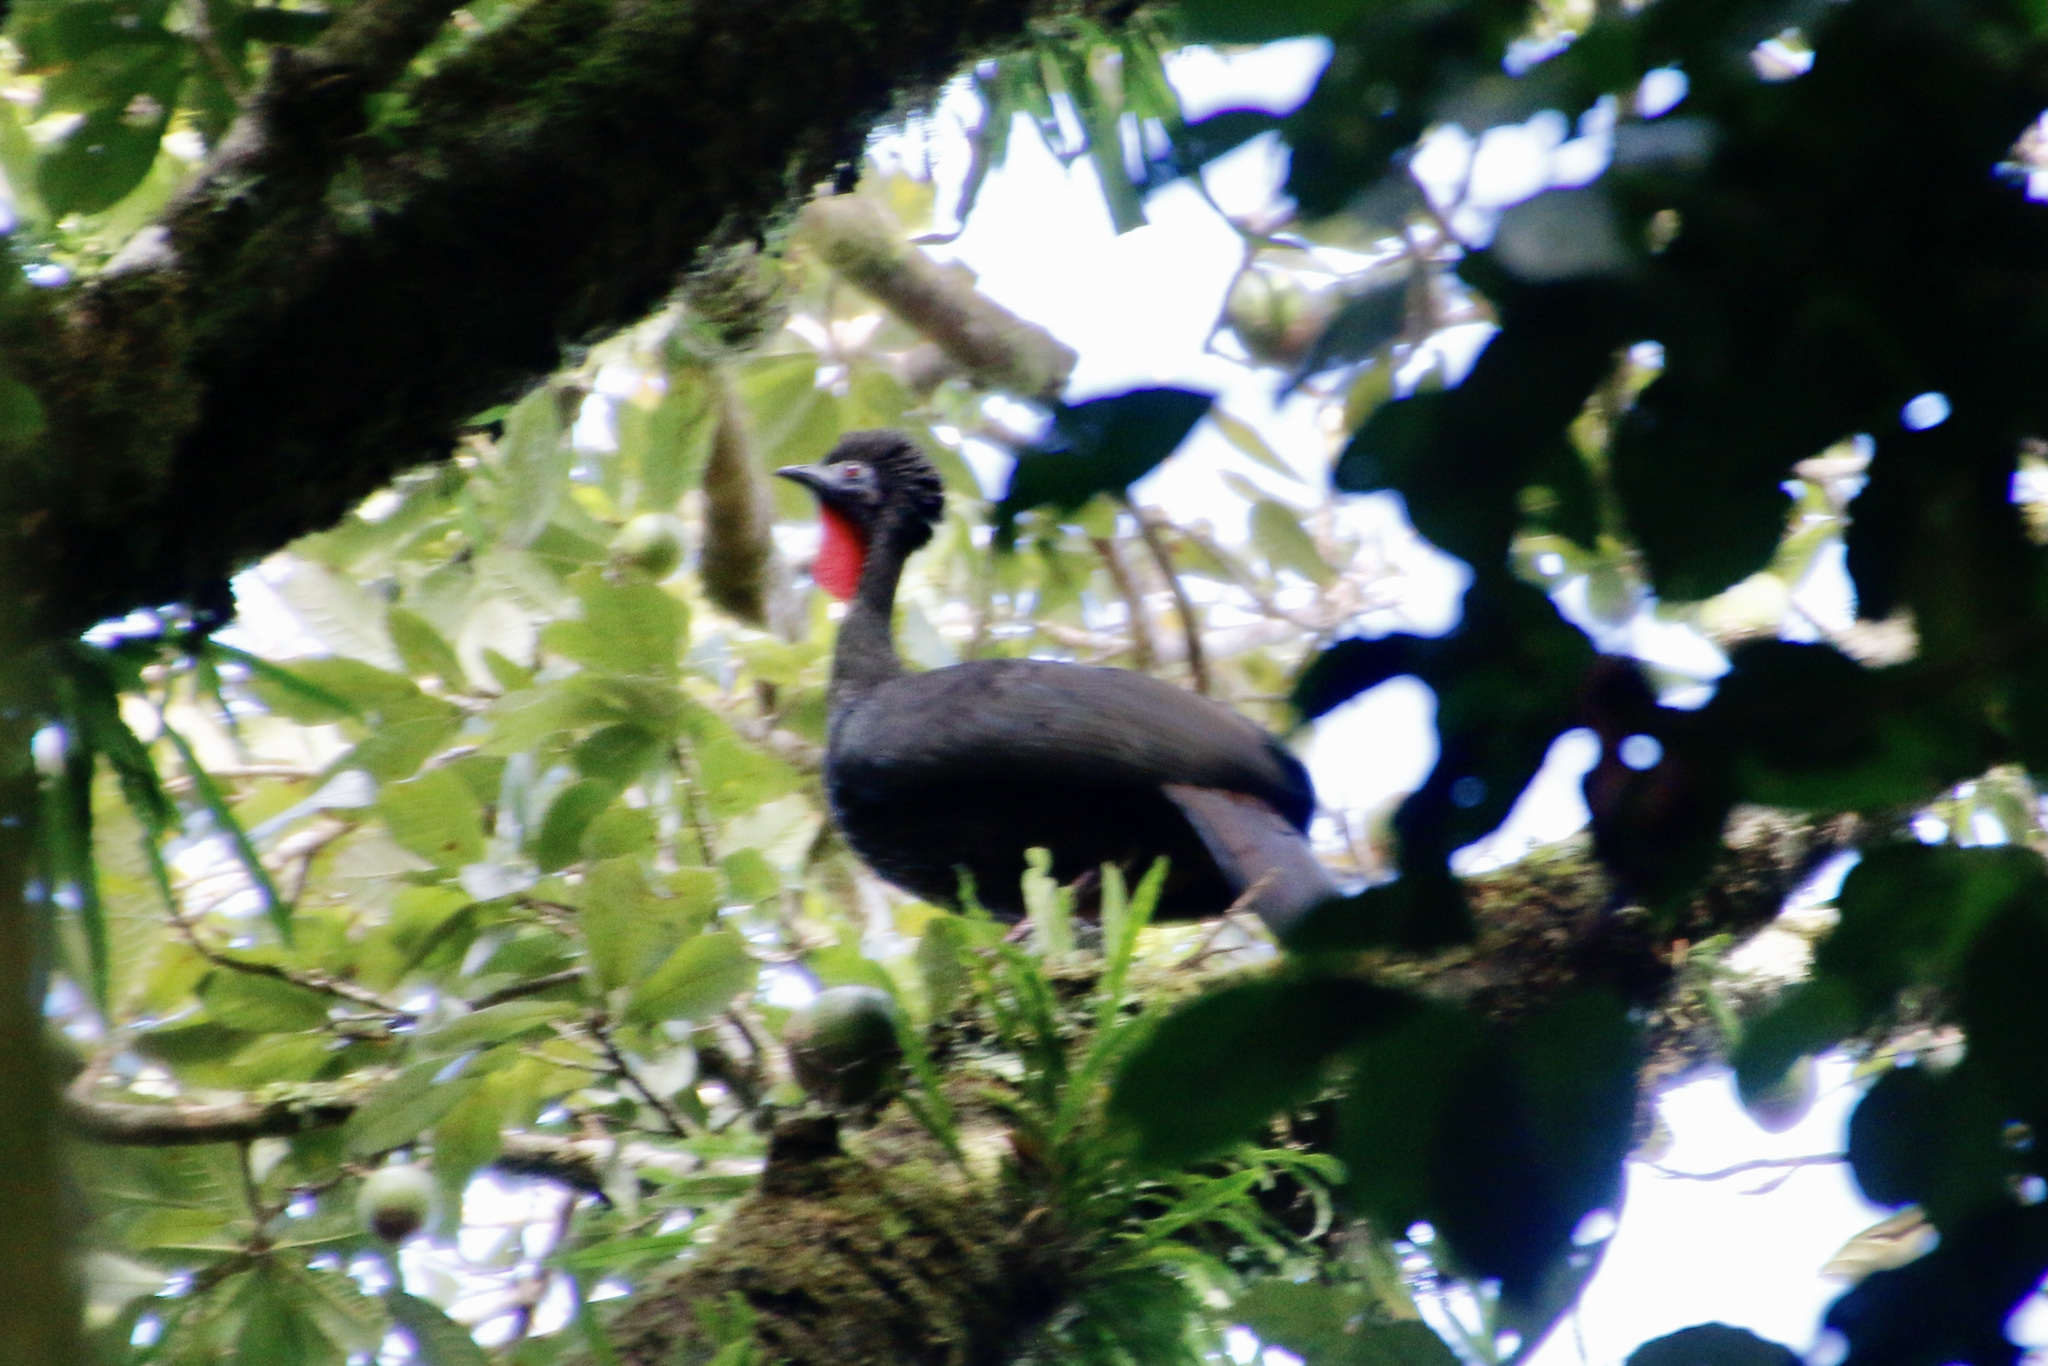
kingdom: Animalia
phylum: Chordata
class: Aves
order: Galliformes
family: Cracidae
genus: Penelope
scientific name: Penelope purpurascens
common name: Crested guan
